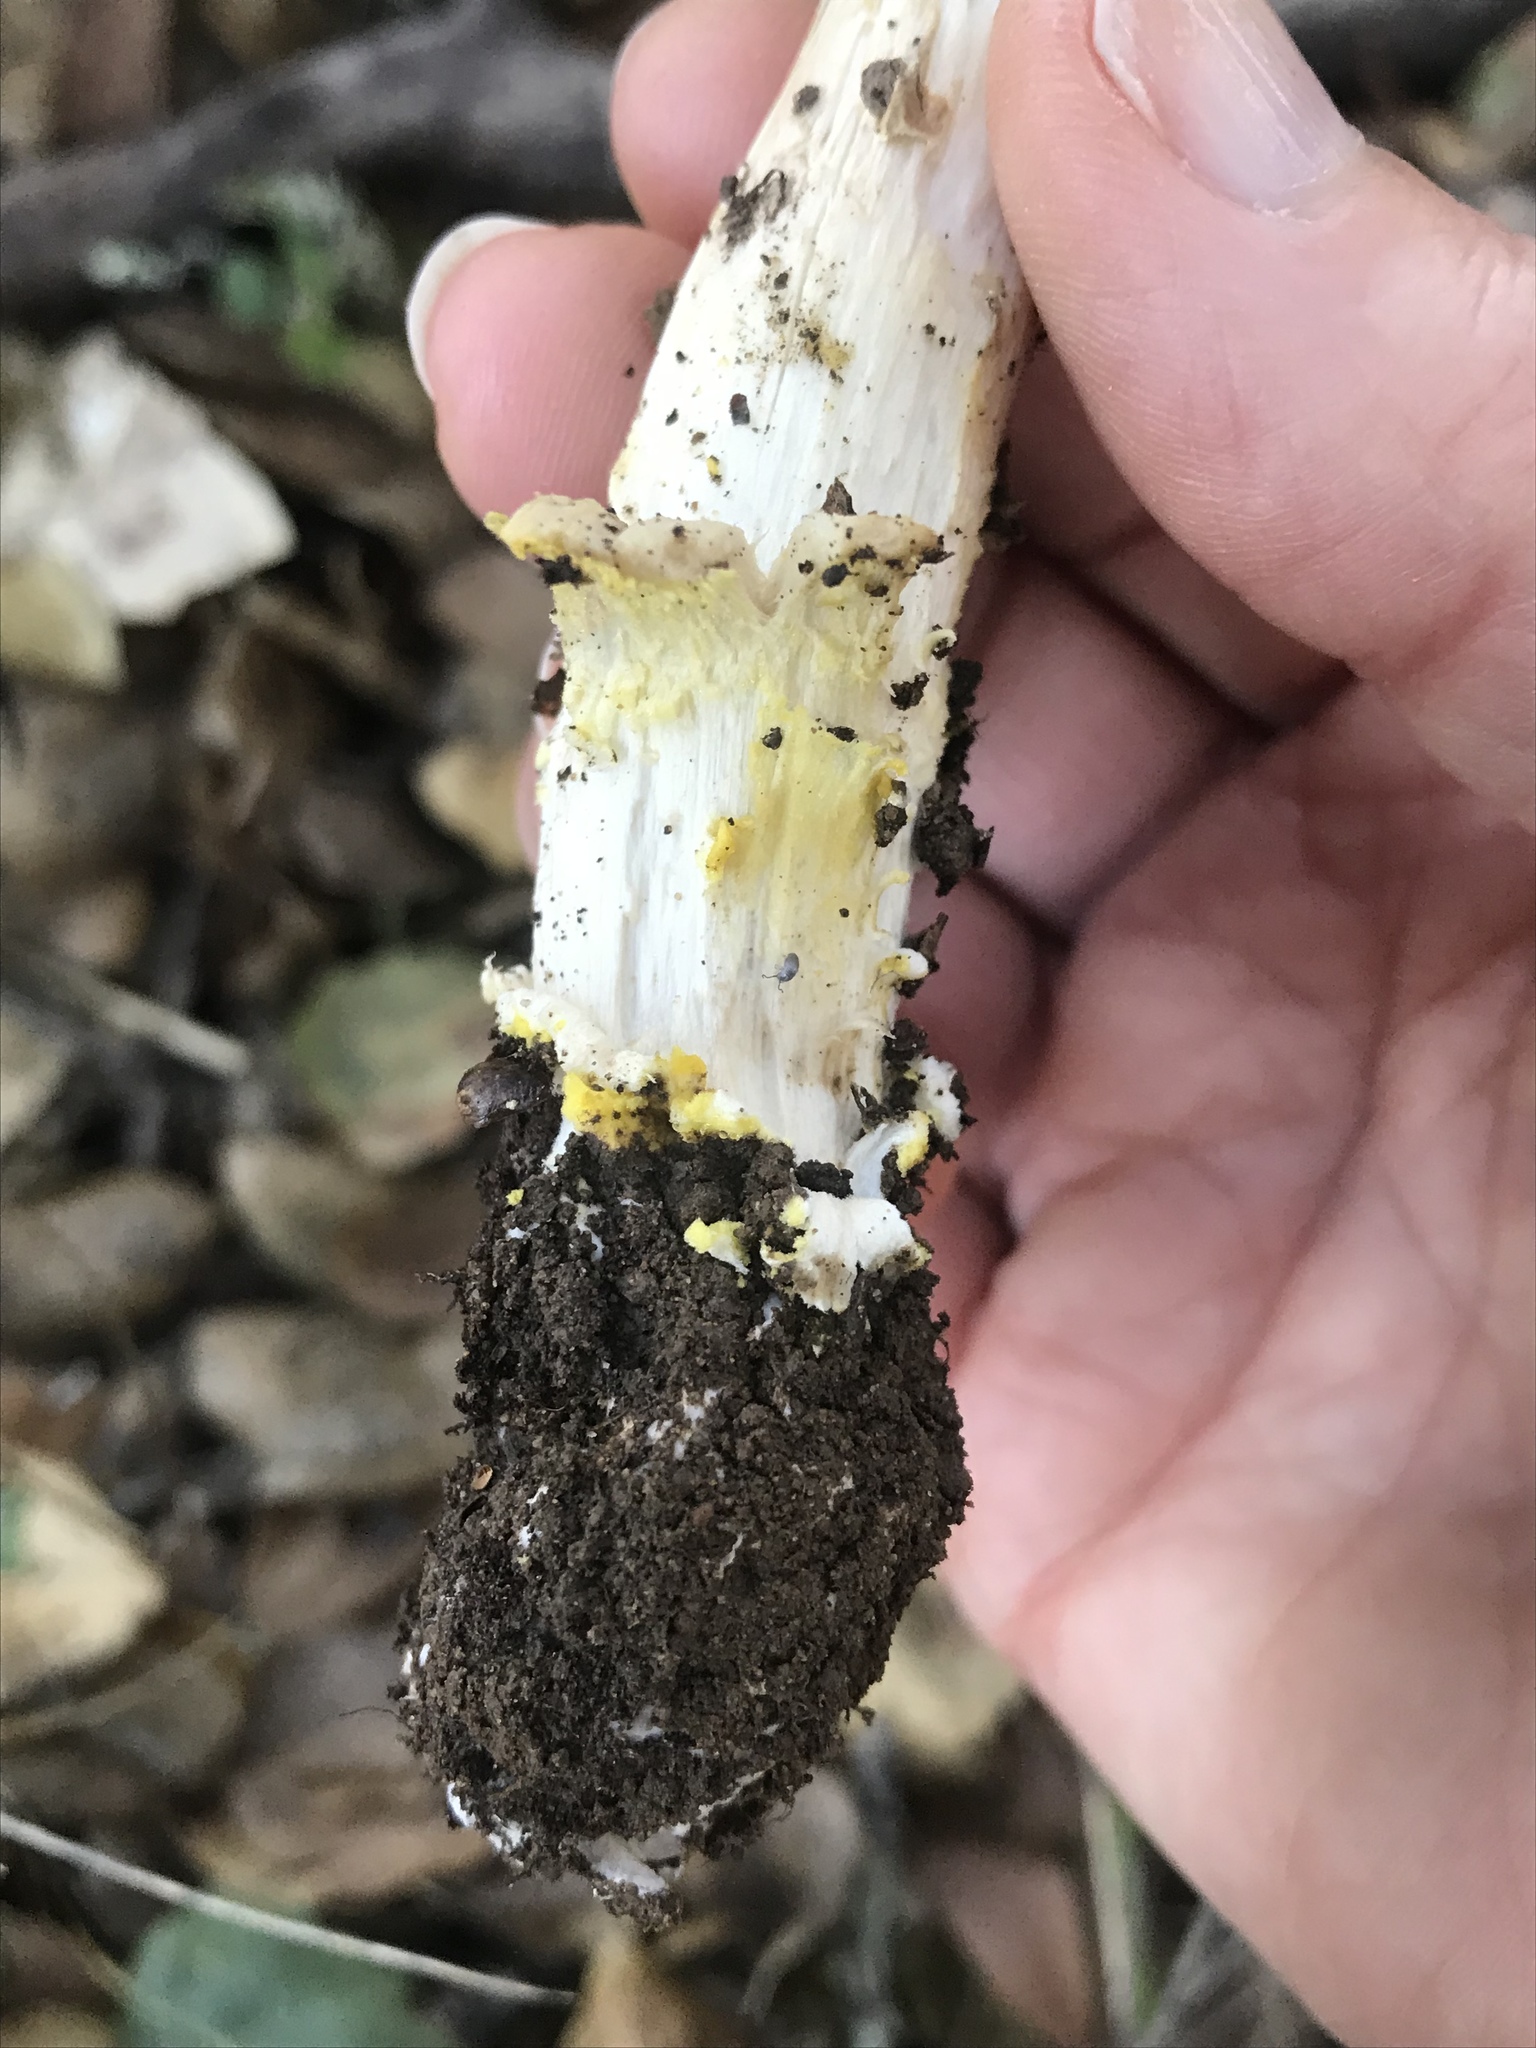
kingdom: Fungi
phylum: Basidiomycota
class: Agaricomycetes
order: Agaricales
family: Amanitaceae
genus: Amanita
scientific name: Amanita augusta
